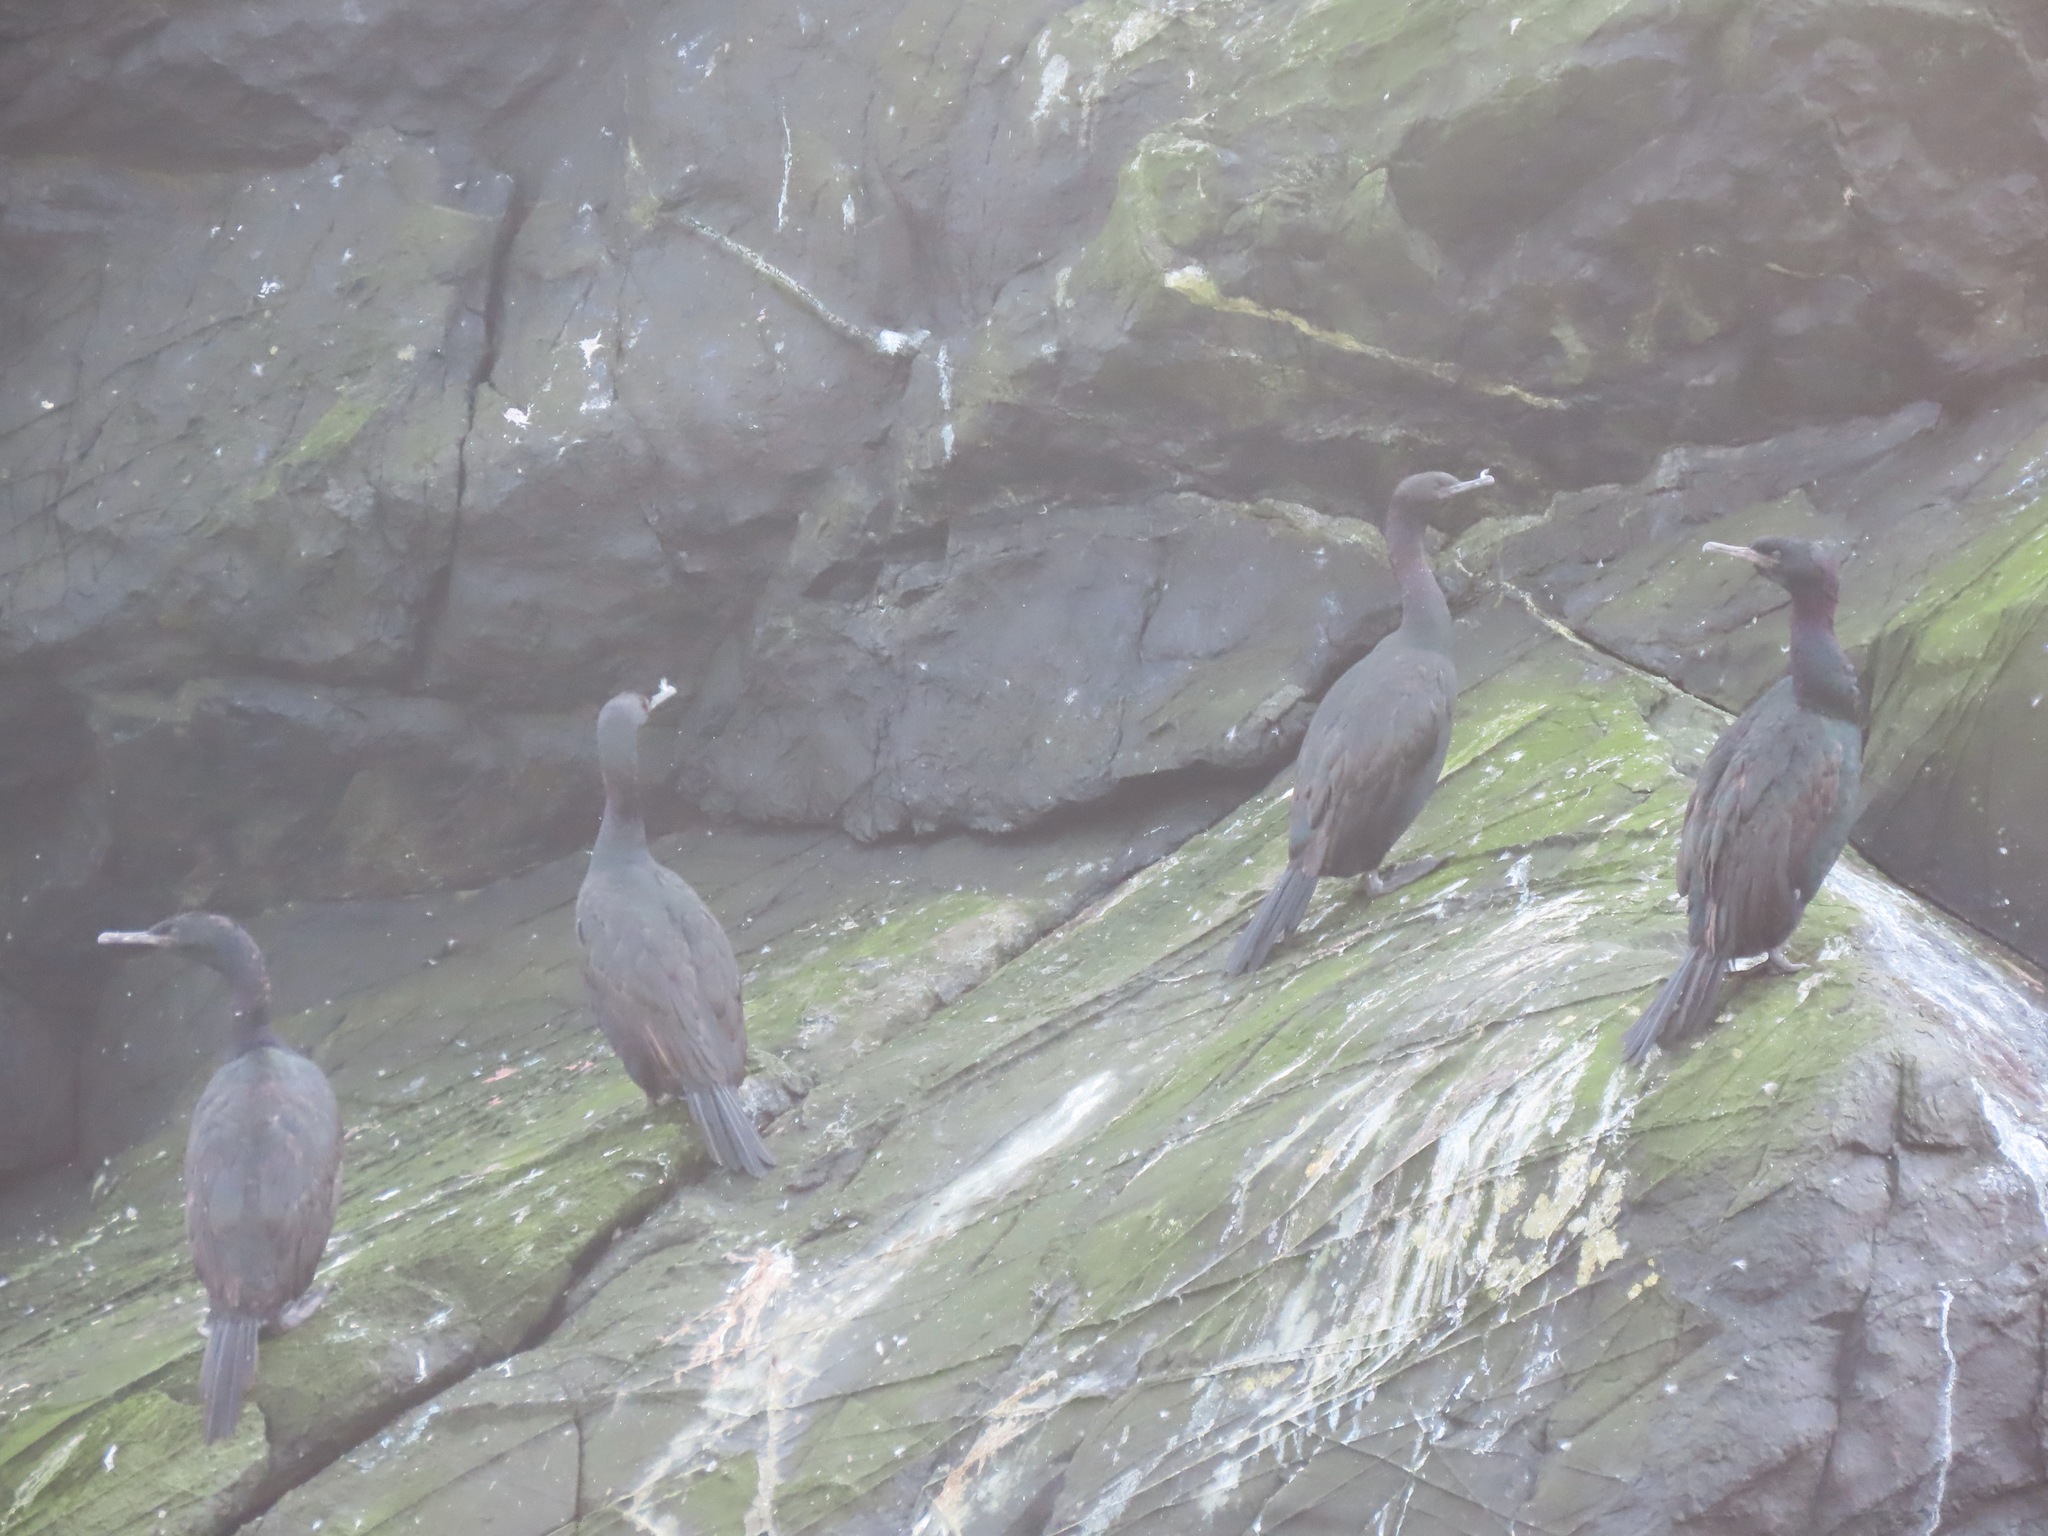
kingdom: Animalia
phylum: Chordata
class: Aves
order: Suliformes
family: Phalacrocoracidae
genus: Phalacrocorax
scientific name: Phalacrocorax pelagicus
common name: Pelagic cormorant
